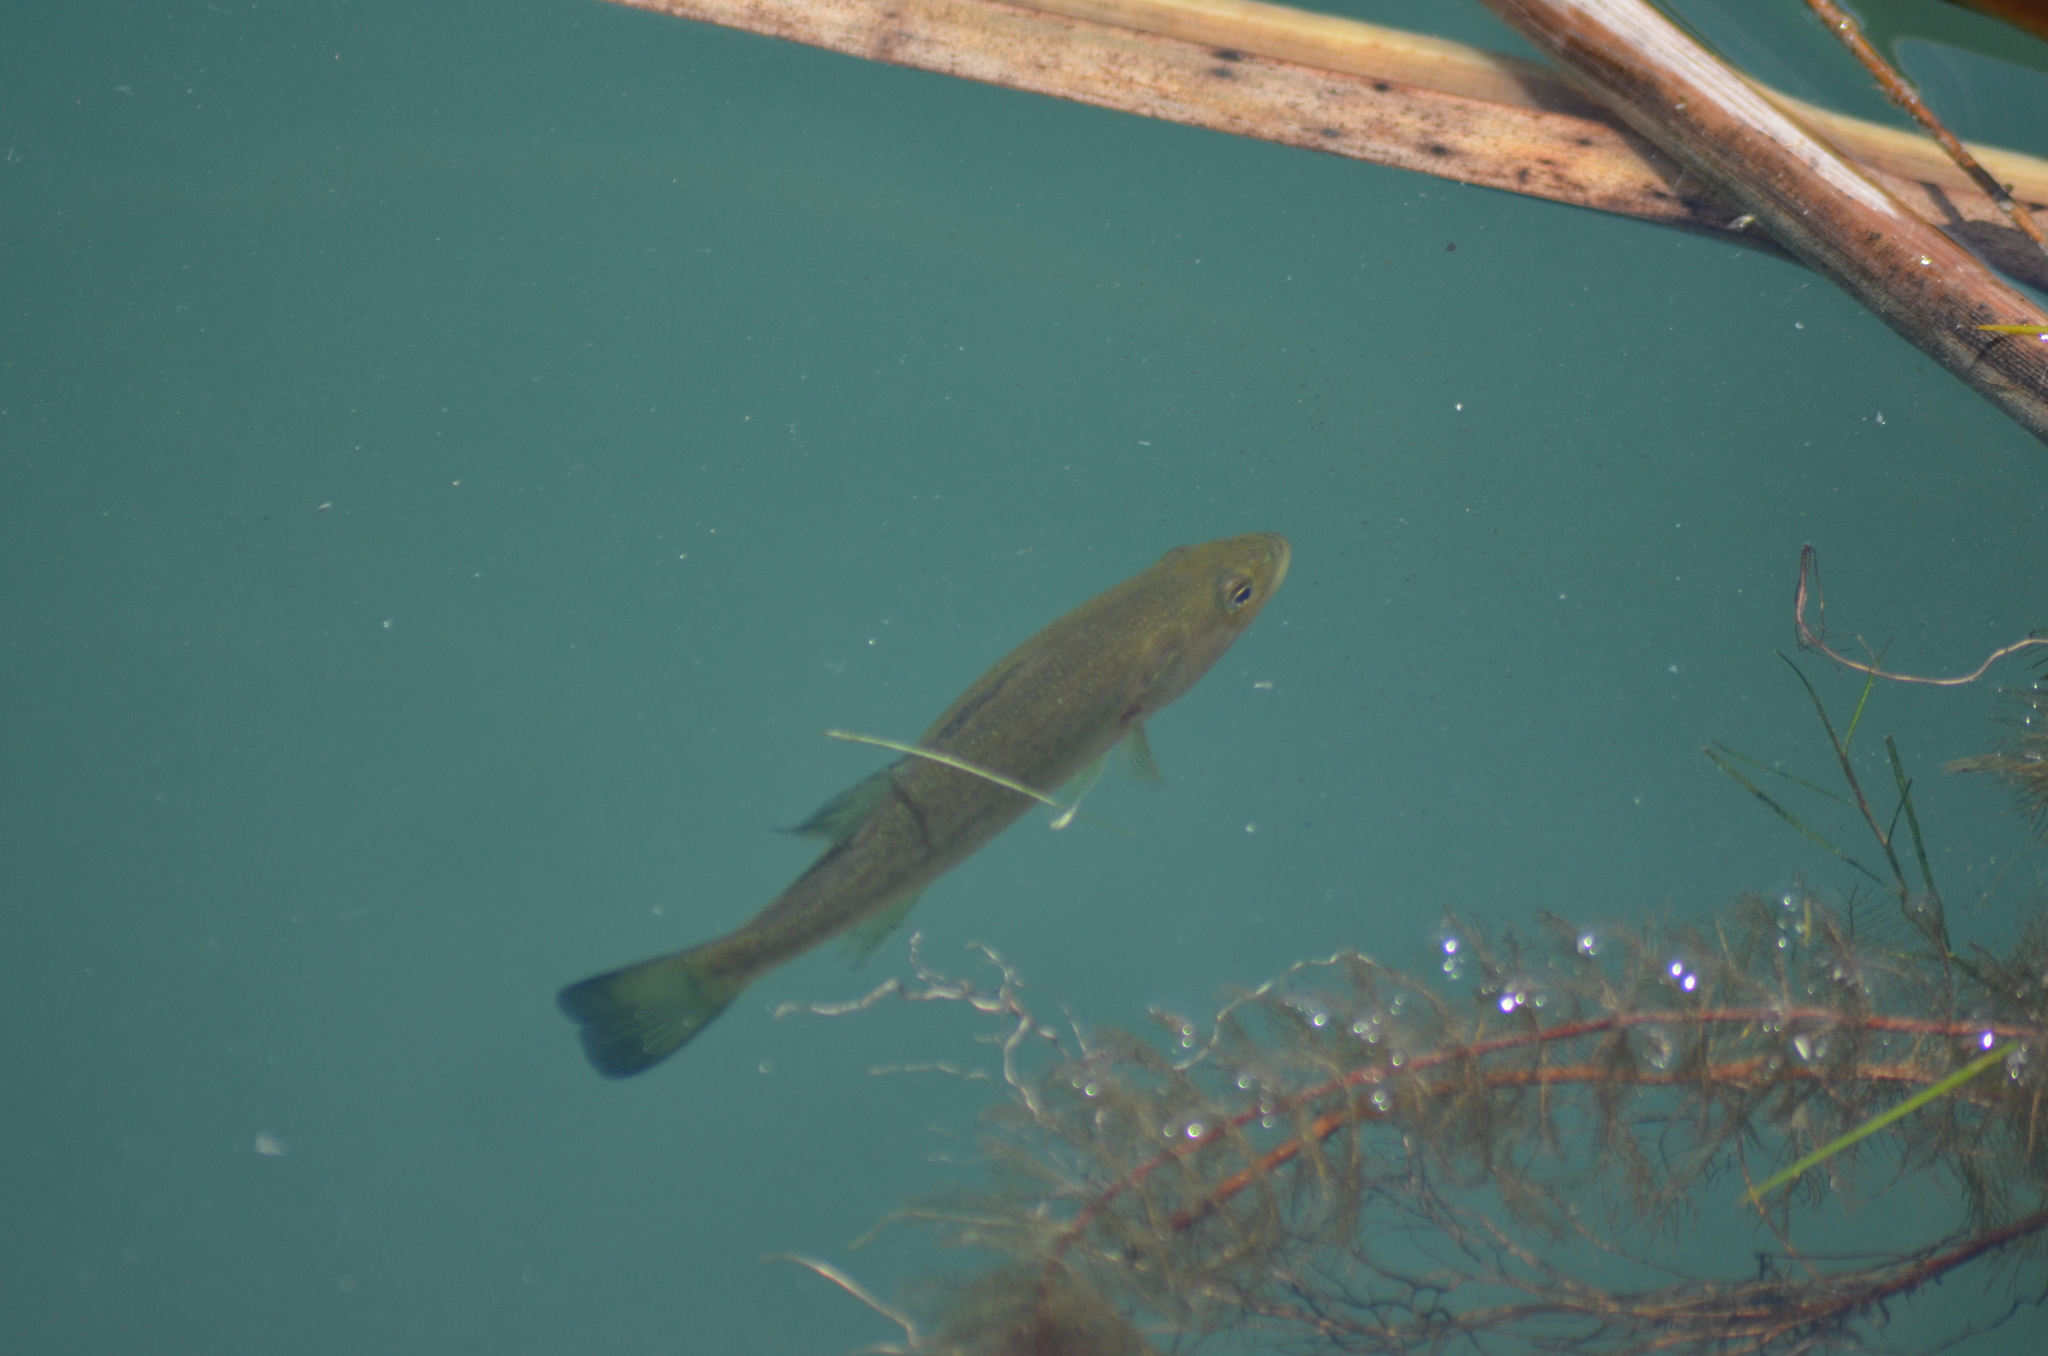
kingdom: Animalia
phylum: Chordata
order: Perciformes
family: Centrarchidae
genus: Micropterus
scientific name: Micropterus
